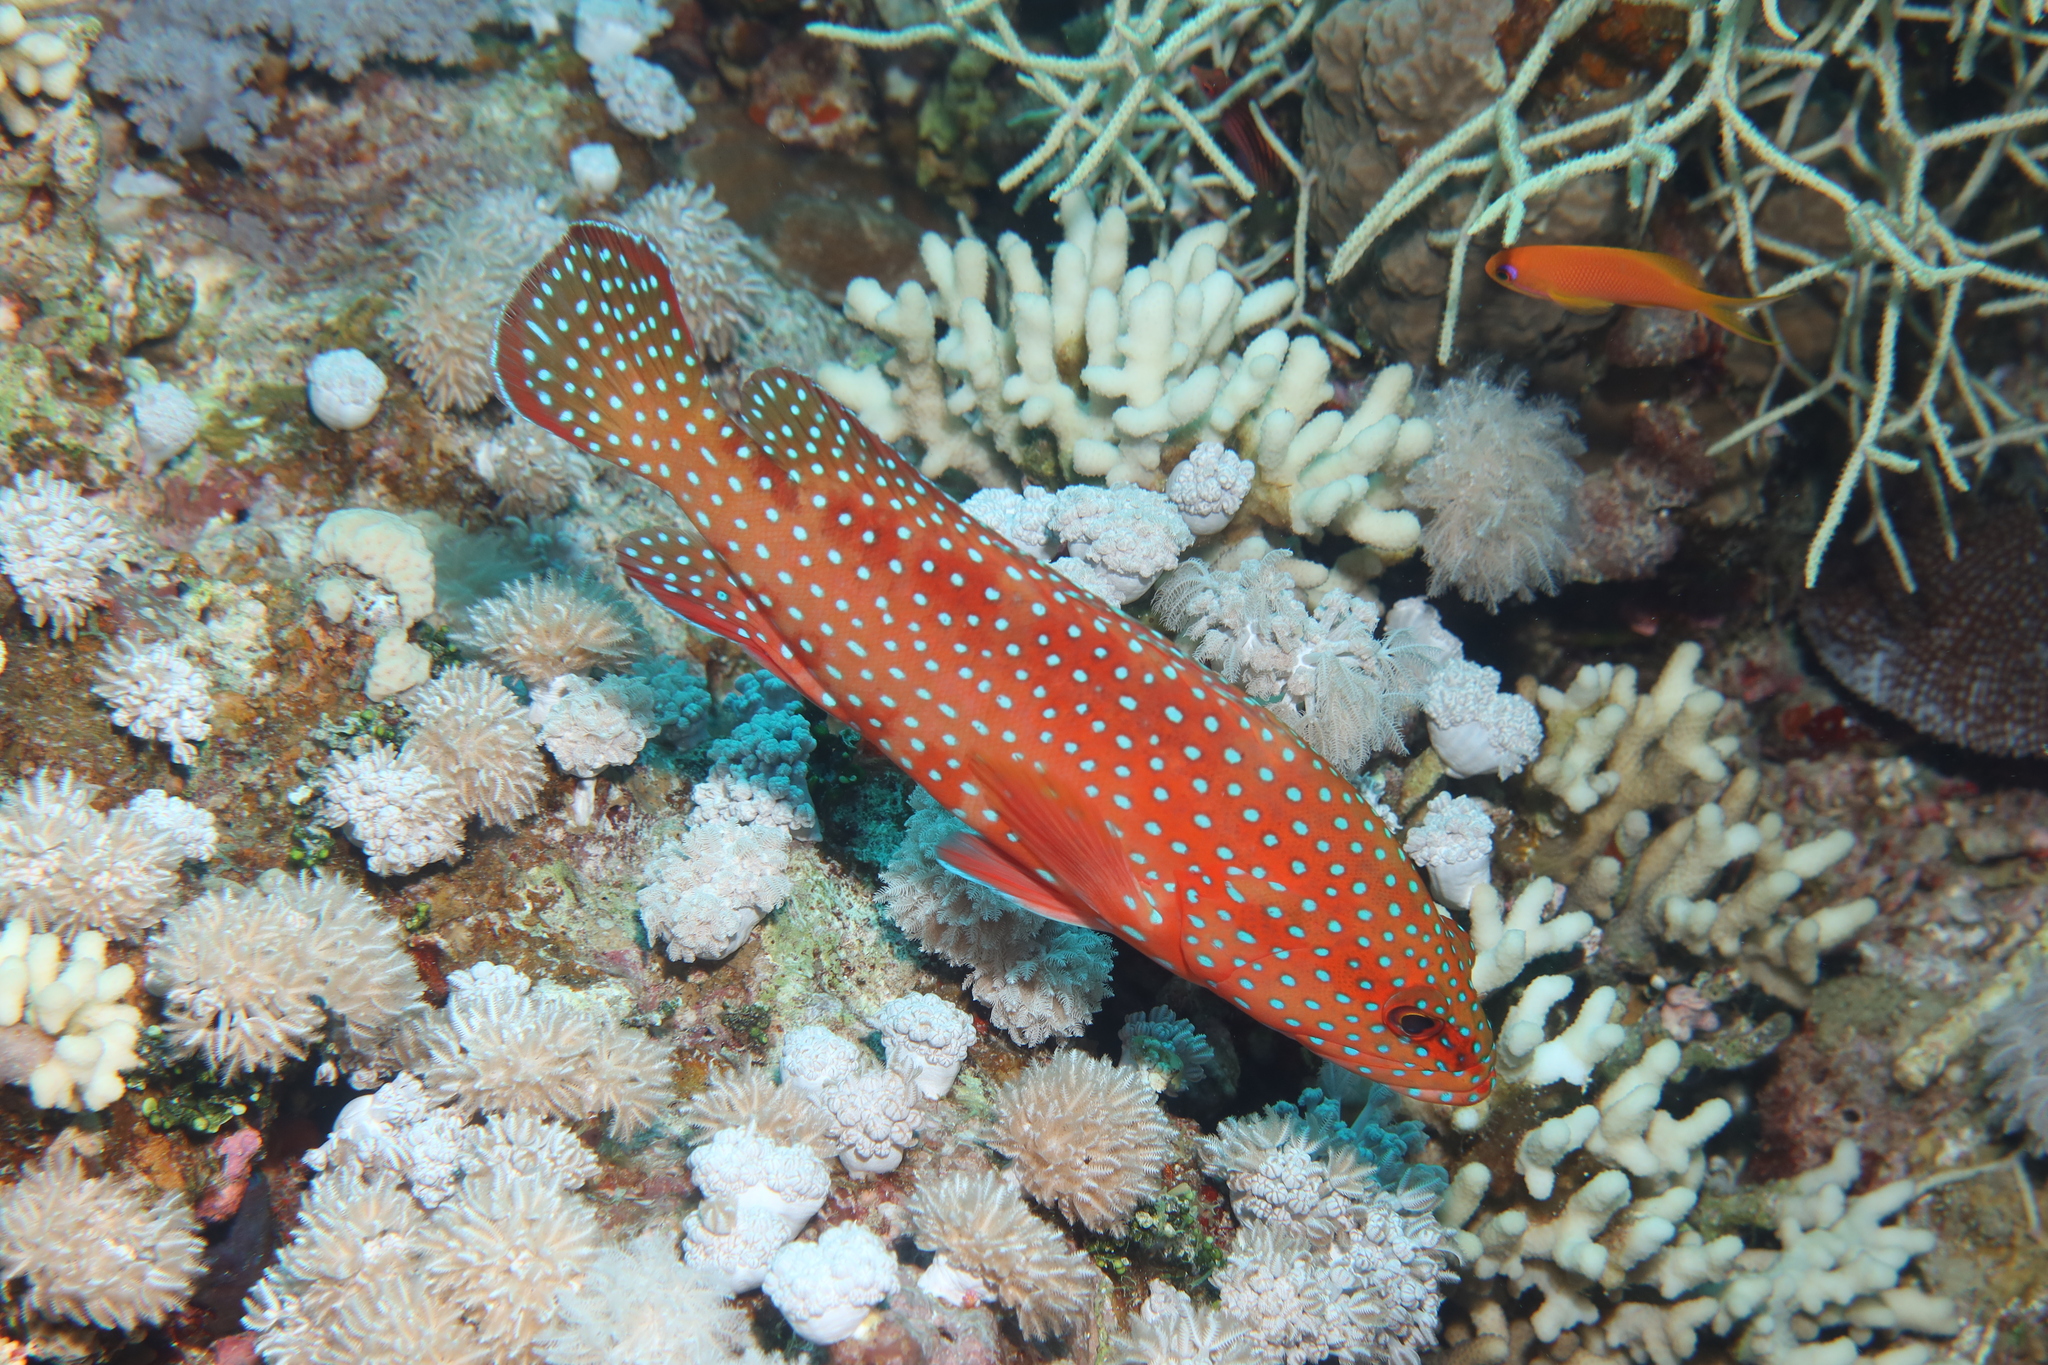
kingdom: Animalia
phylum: Chordata
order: Perciformes
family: Serranidae
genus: Cephalopholis
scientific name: Cephalopholis miniata
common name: Coral hind
